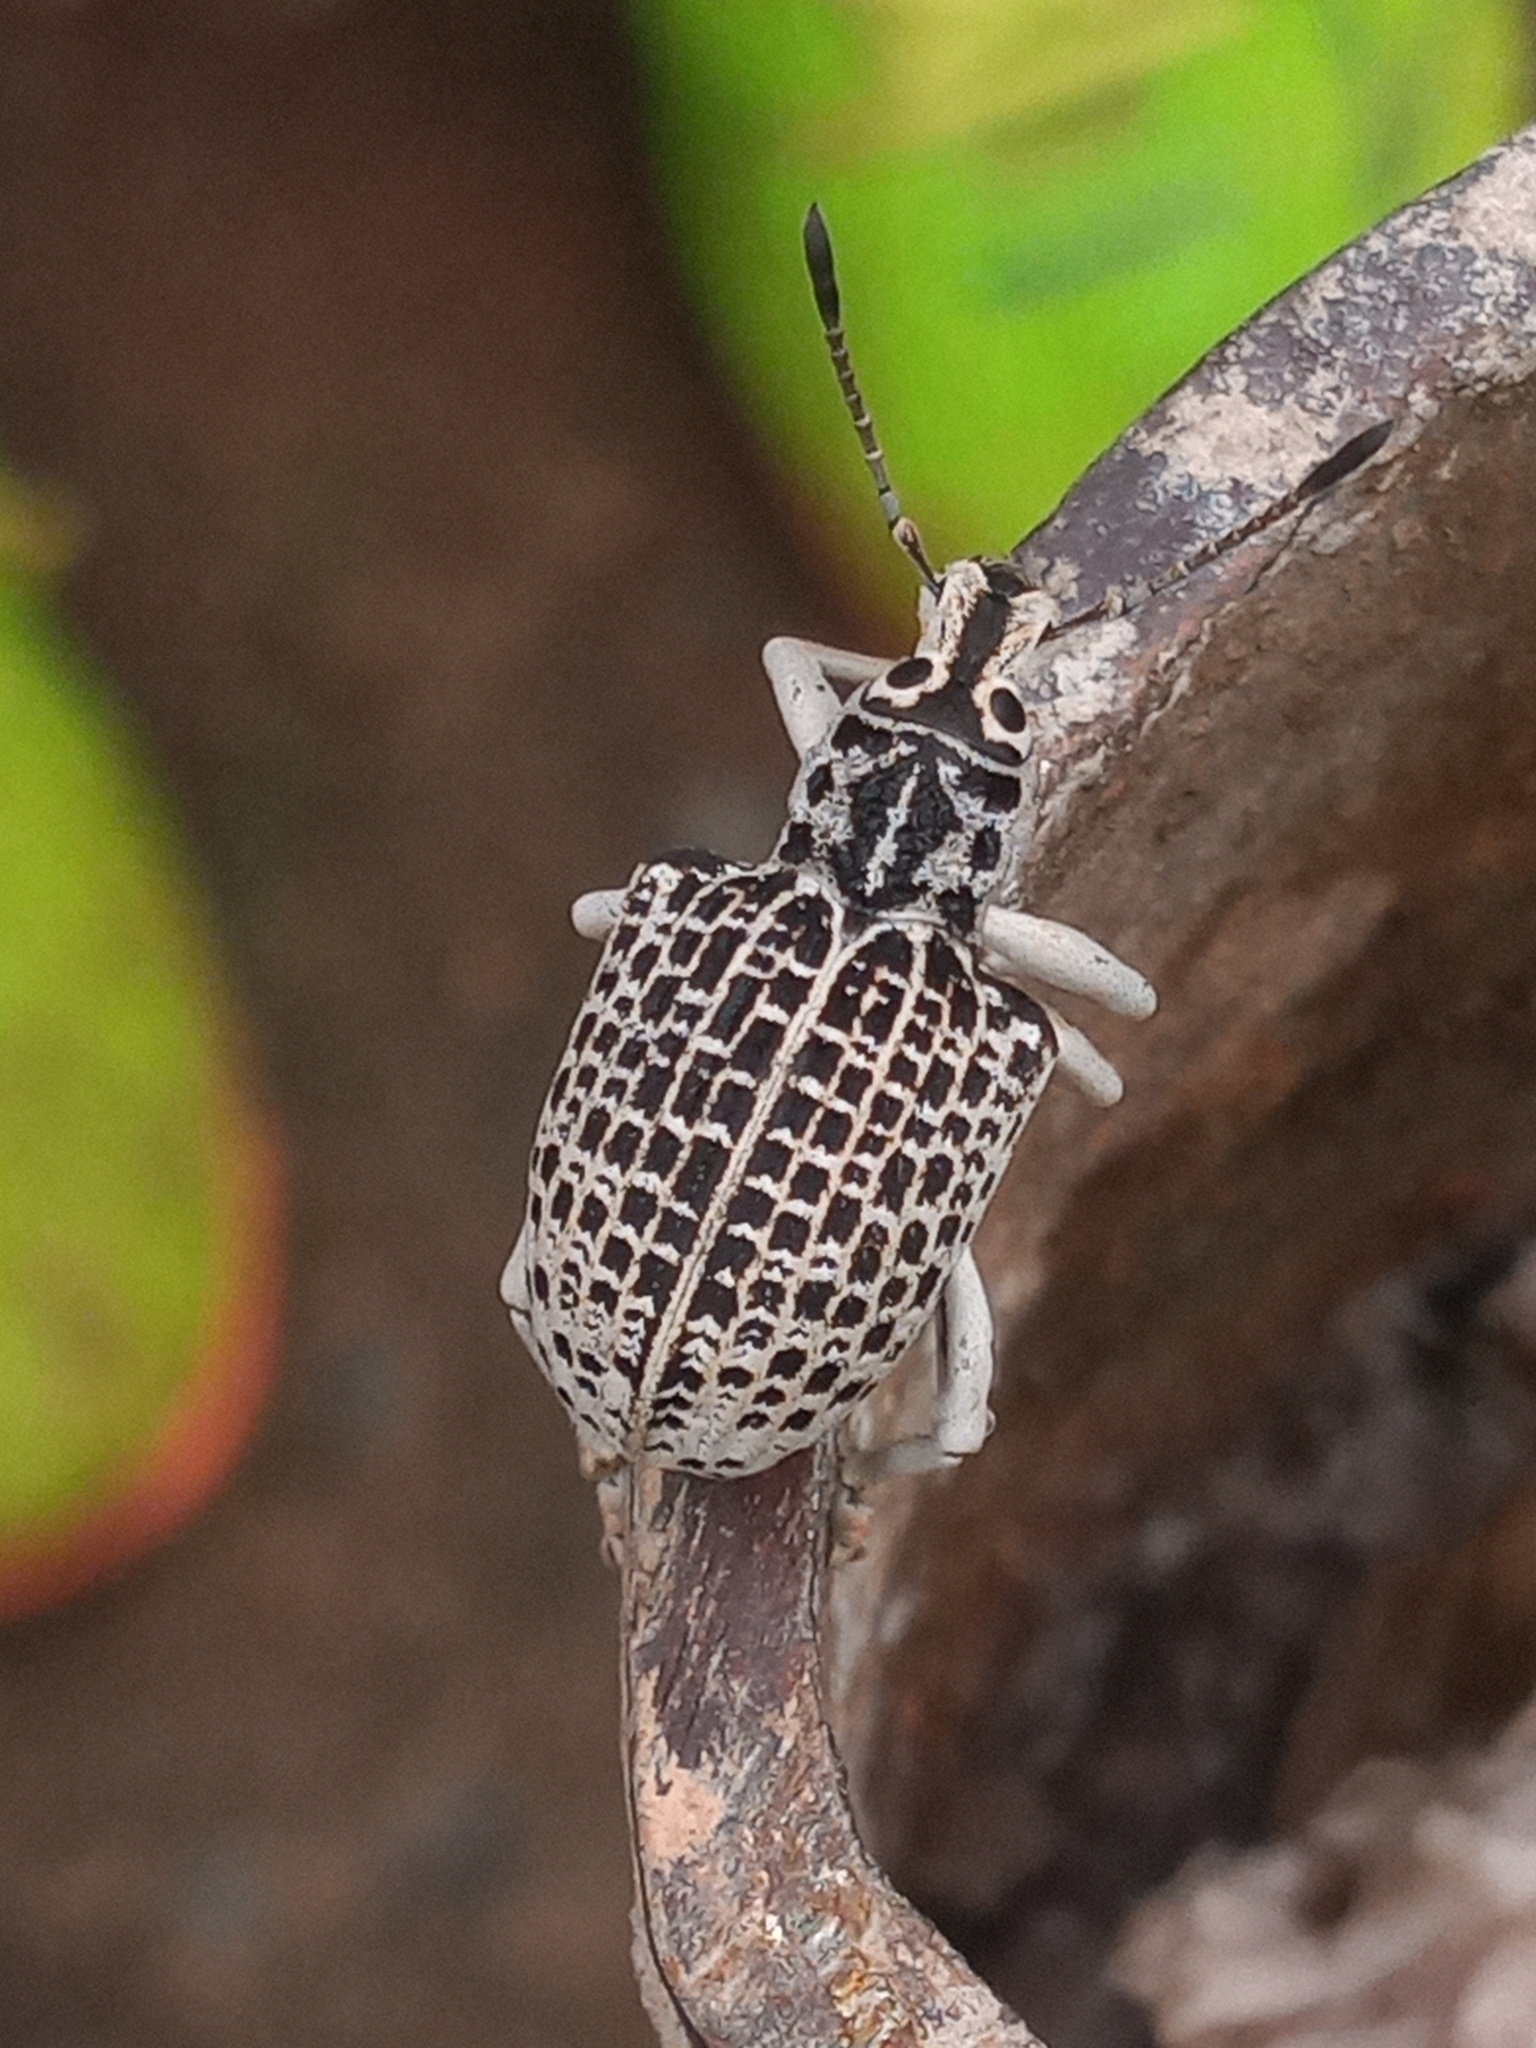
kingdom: Animalia
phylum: Arthropoda
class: Insecta
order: Coleoptera
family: Curculionidae
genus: Cydianerus
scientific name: Cydianerus latruncularius
